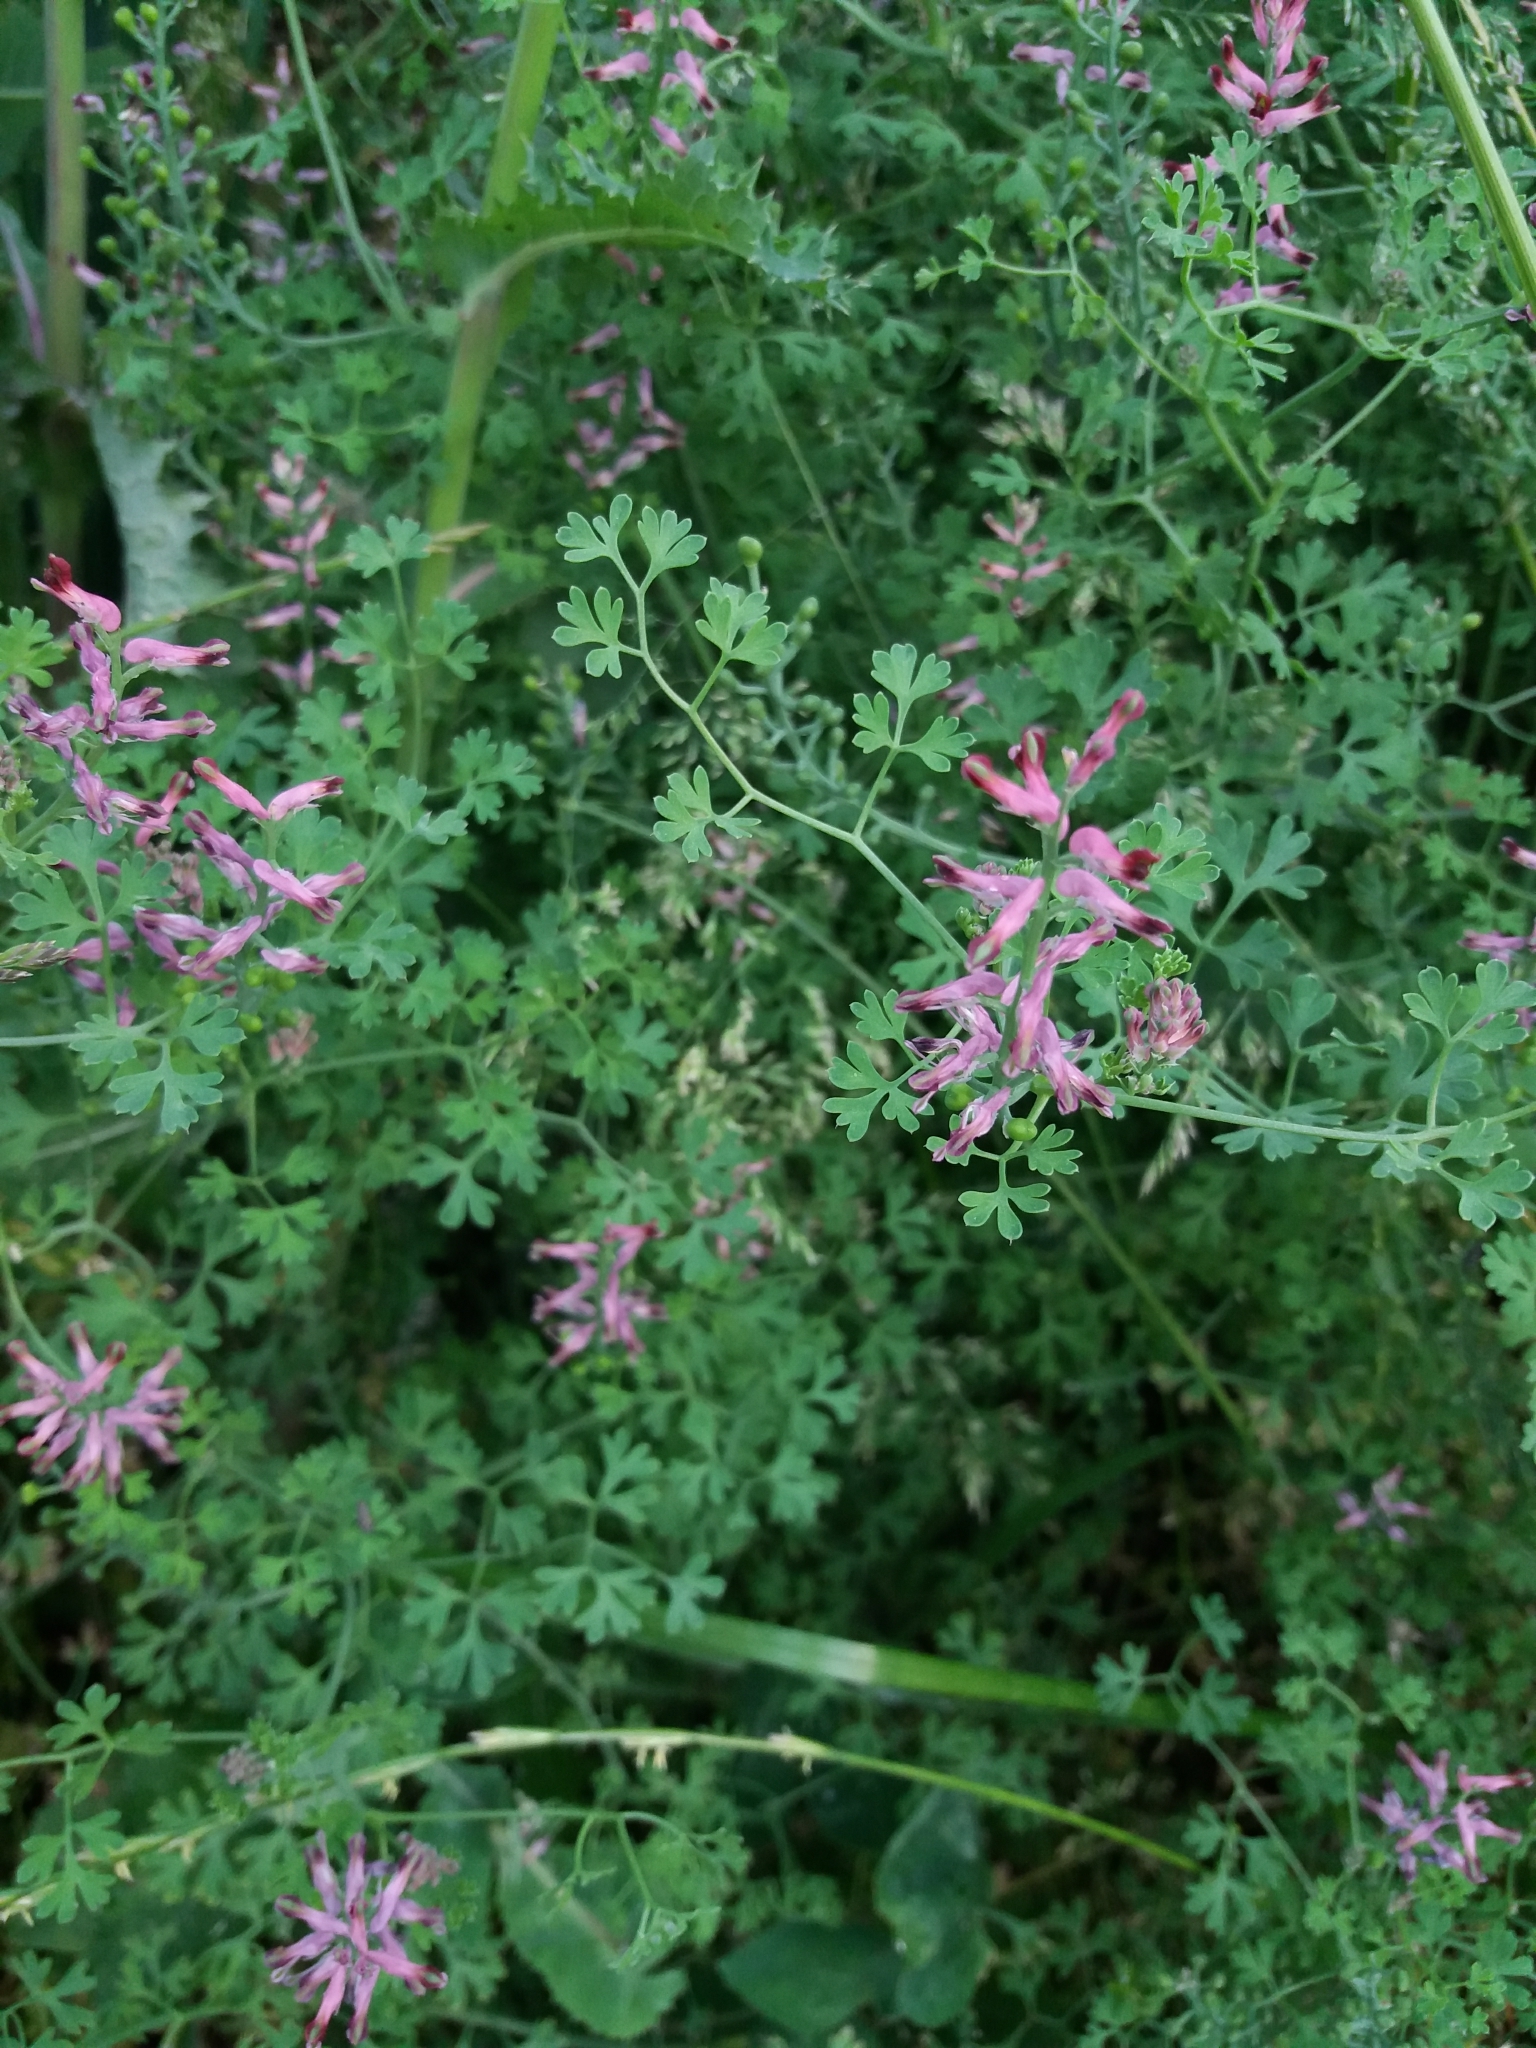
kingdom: Plantae
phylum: Tracheophyta
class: Magnoliopsida
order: Ranunculales
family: Papaveraceae
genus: Fumaria
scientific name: Fumaria officinalis
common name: Common fumitory
